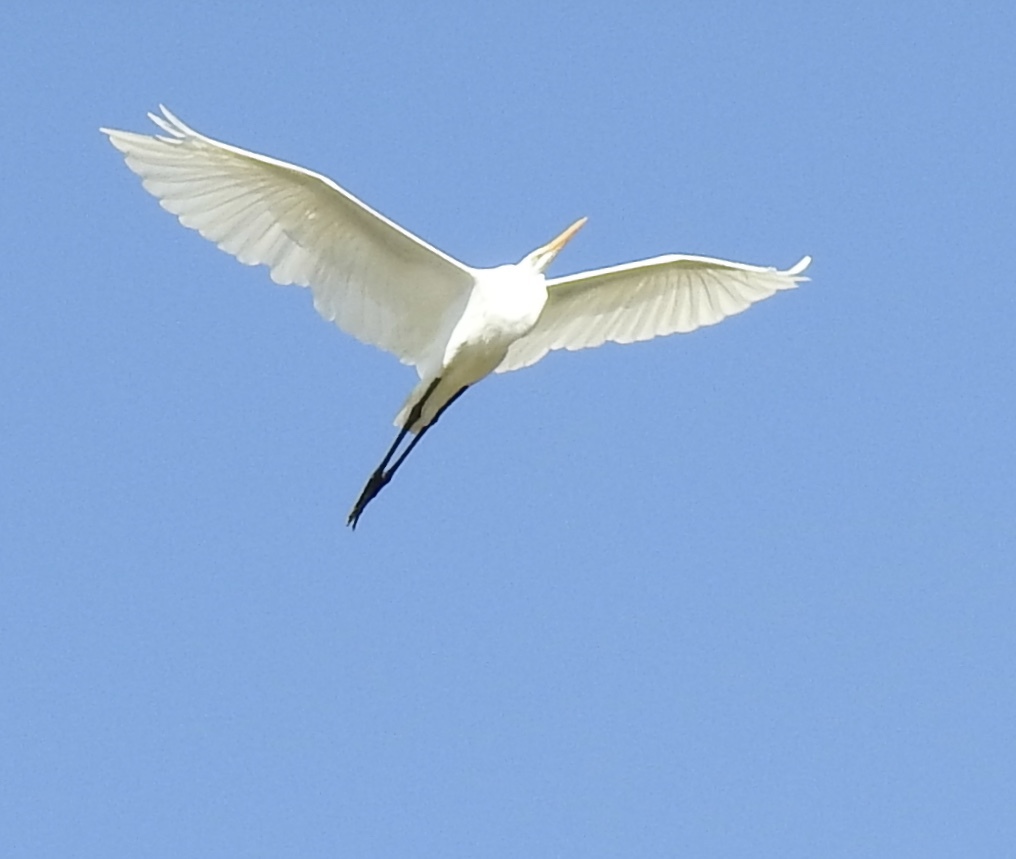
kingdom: Animalia
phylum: Chordata
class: Aves
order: Pelecaniformes
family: Ardeidae
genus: Ardea
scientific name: Ardea alba
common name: Great egret
